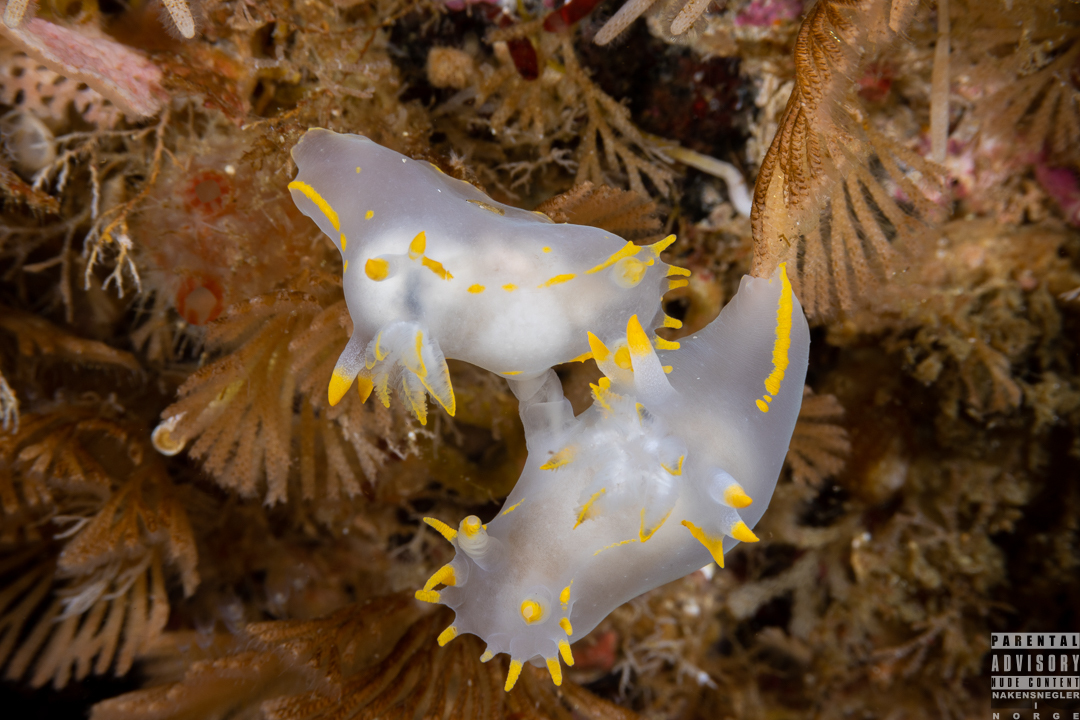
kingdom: Animalia
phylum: Mollusca
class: Gastropoda
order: Nudibranchia
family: Polyceridae
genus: Polycera
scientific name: Polycera faeroensis
